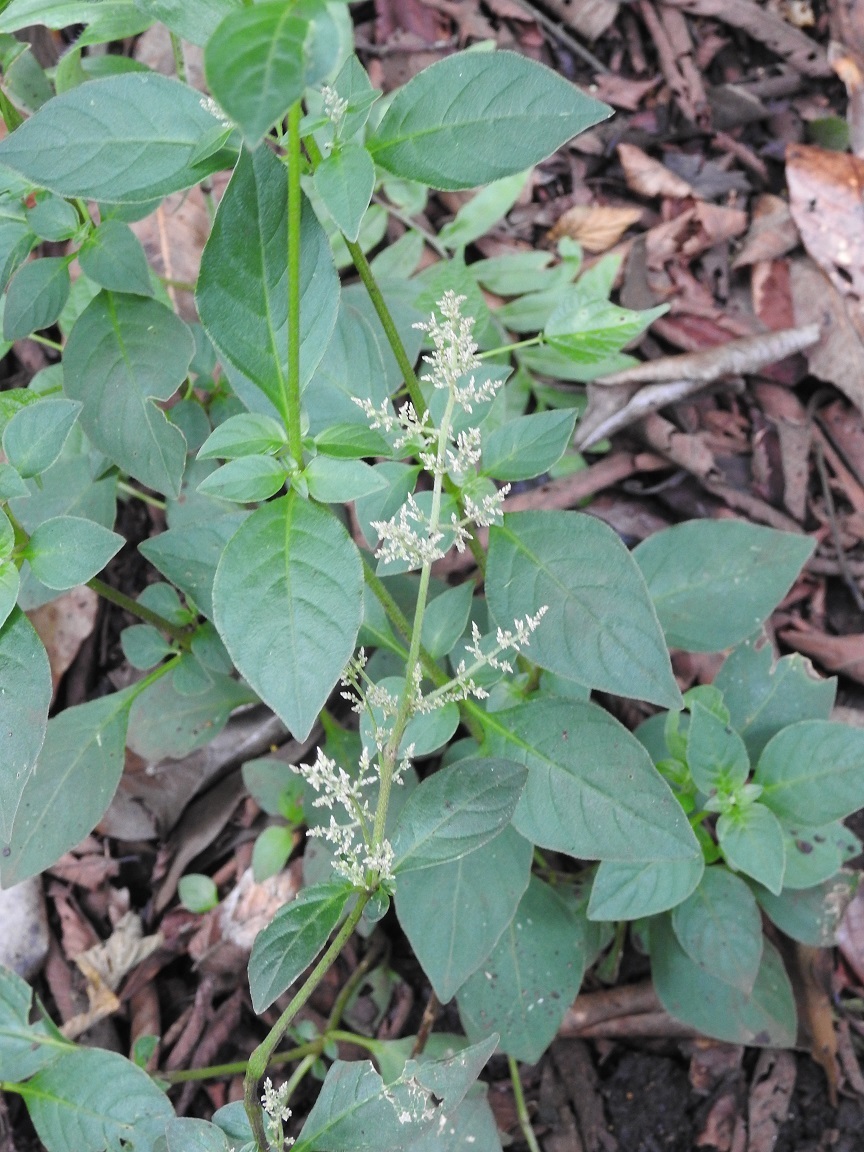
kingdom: Plantae
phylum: Tracheophyta
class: Magnoliopsida
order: Caryophyllales
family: Amaranthaceae
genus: Iresine
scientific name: Iresine diffusa
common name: Juba's-bush
